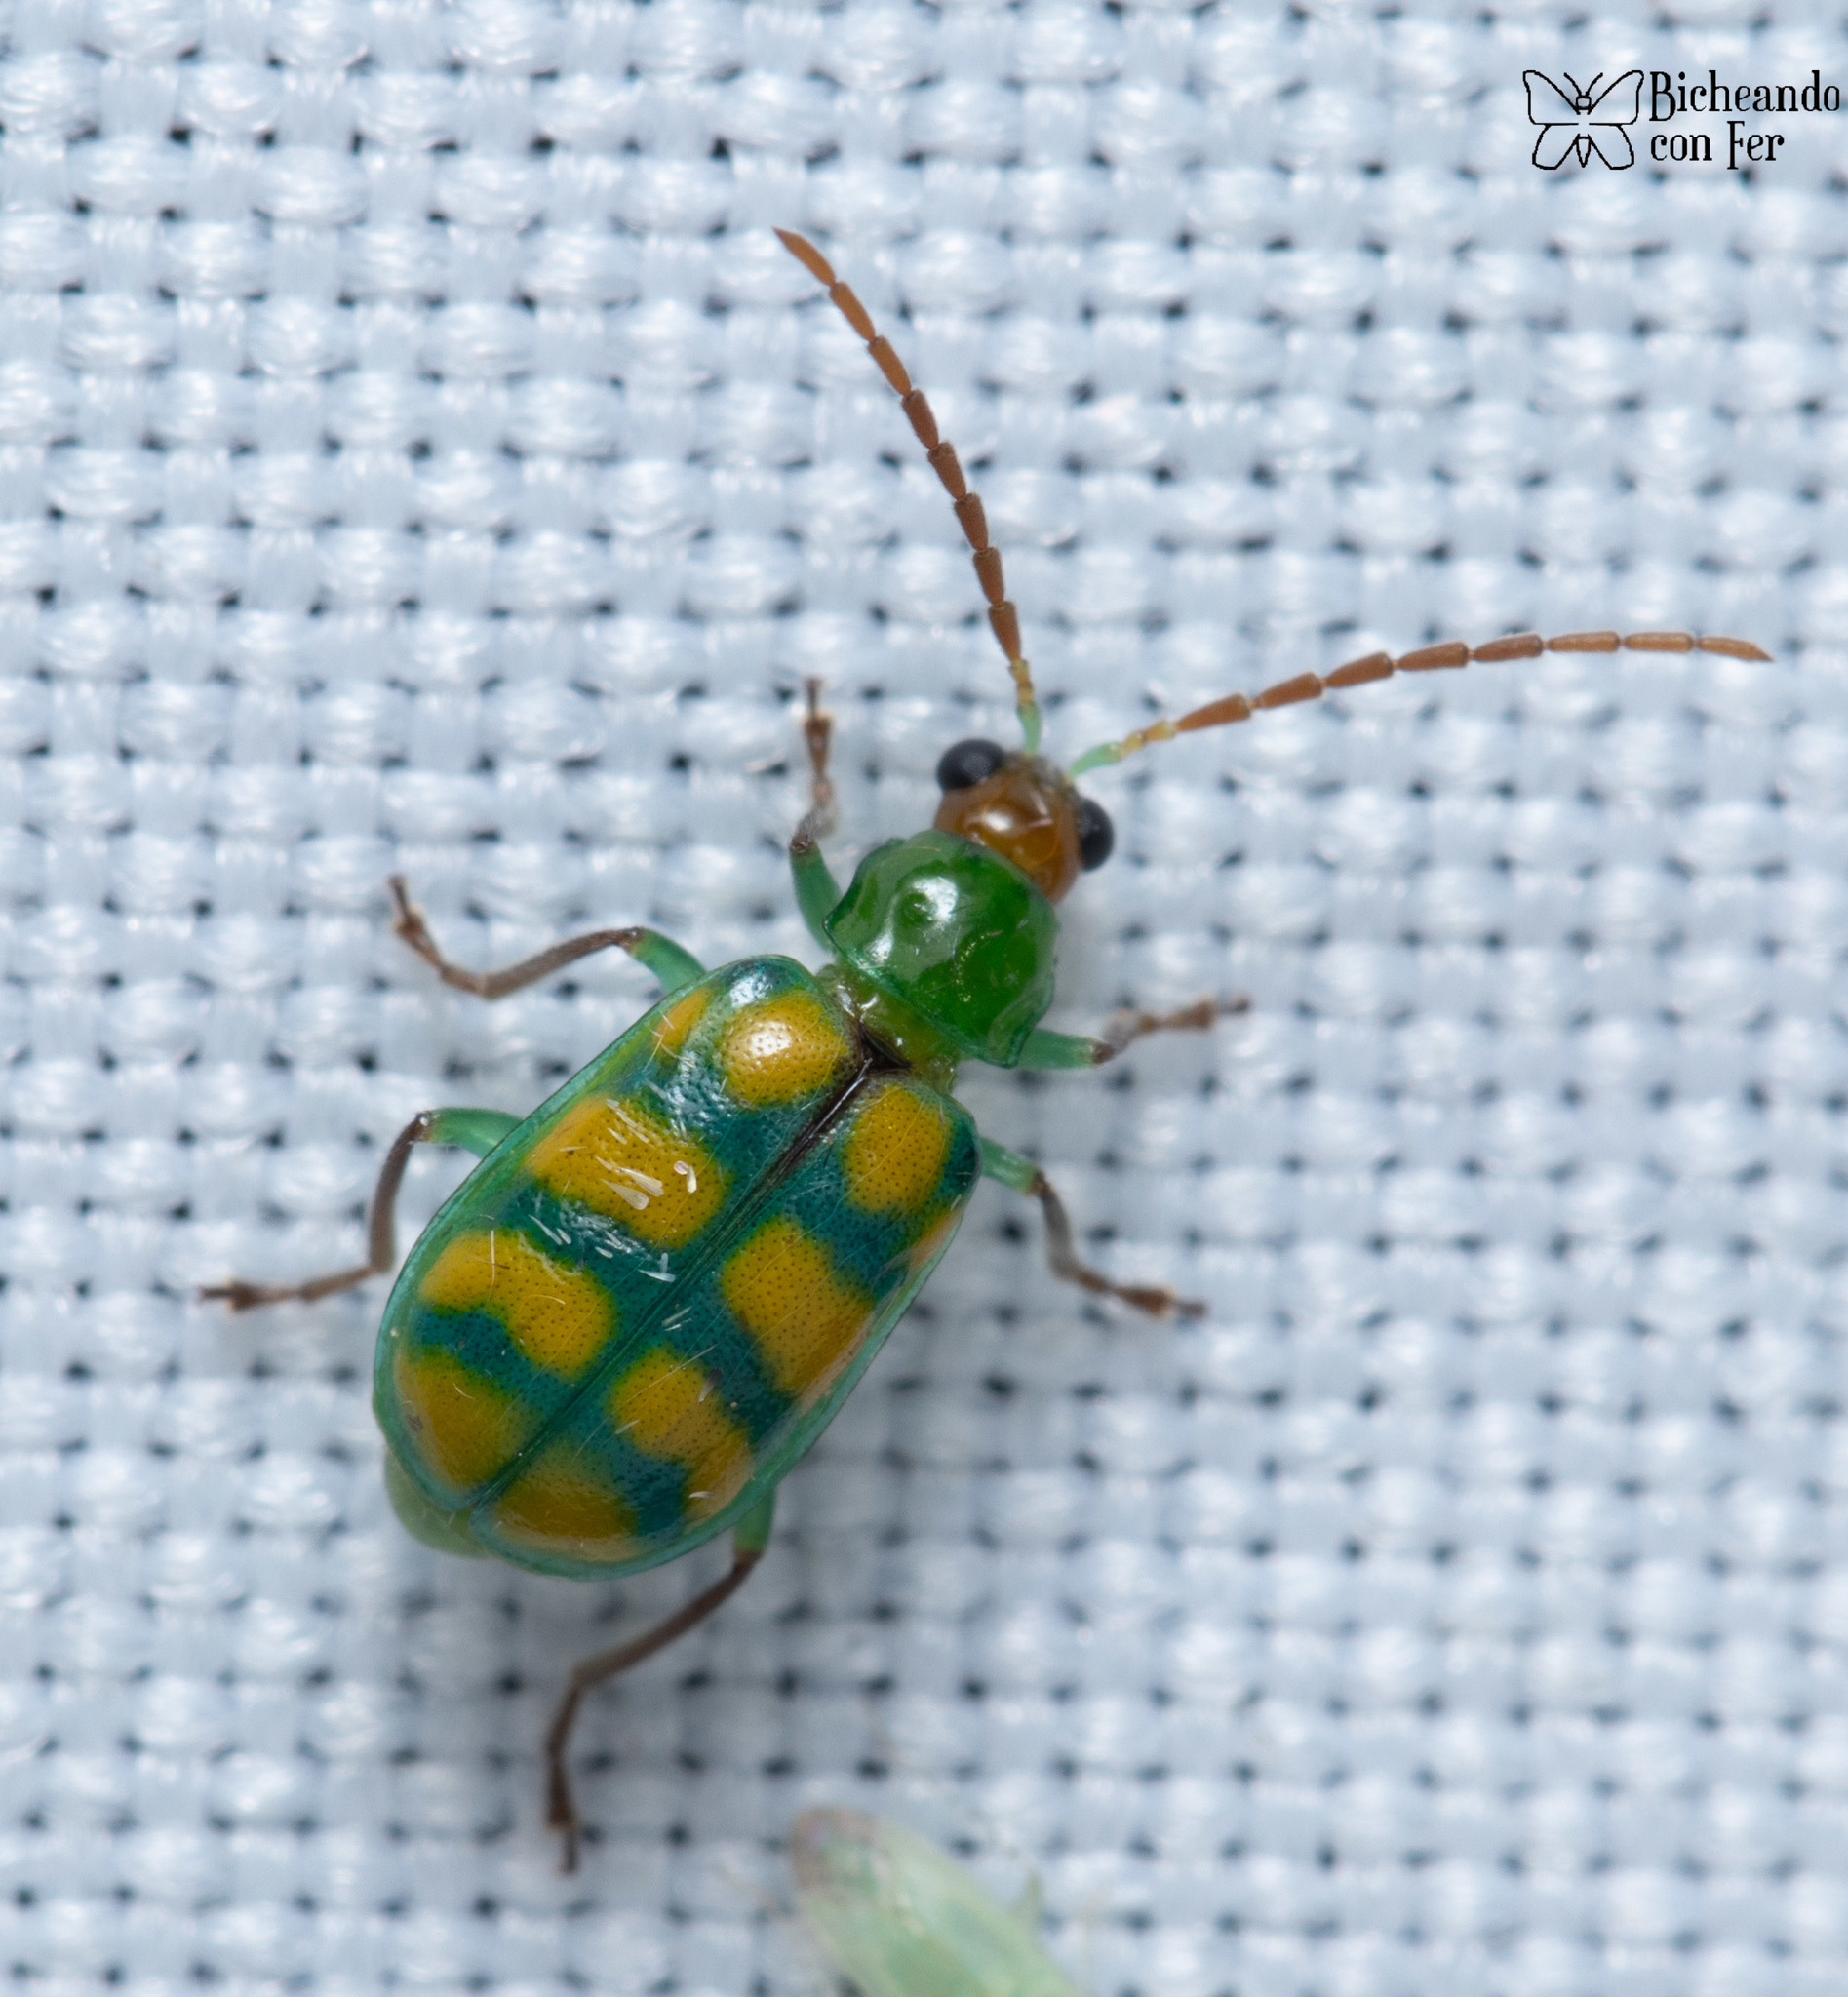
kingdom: Animalia
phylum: Arthropoda
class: Insecta
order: Coleoptera
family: Chrysomelidae
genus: Diabrotica
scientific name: Diabrotica balteata
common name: Leaf beetle
